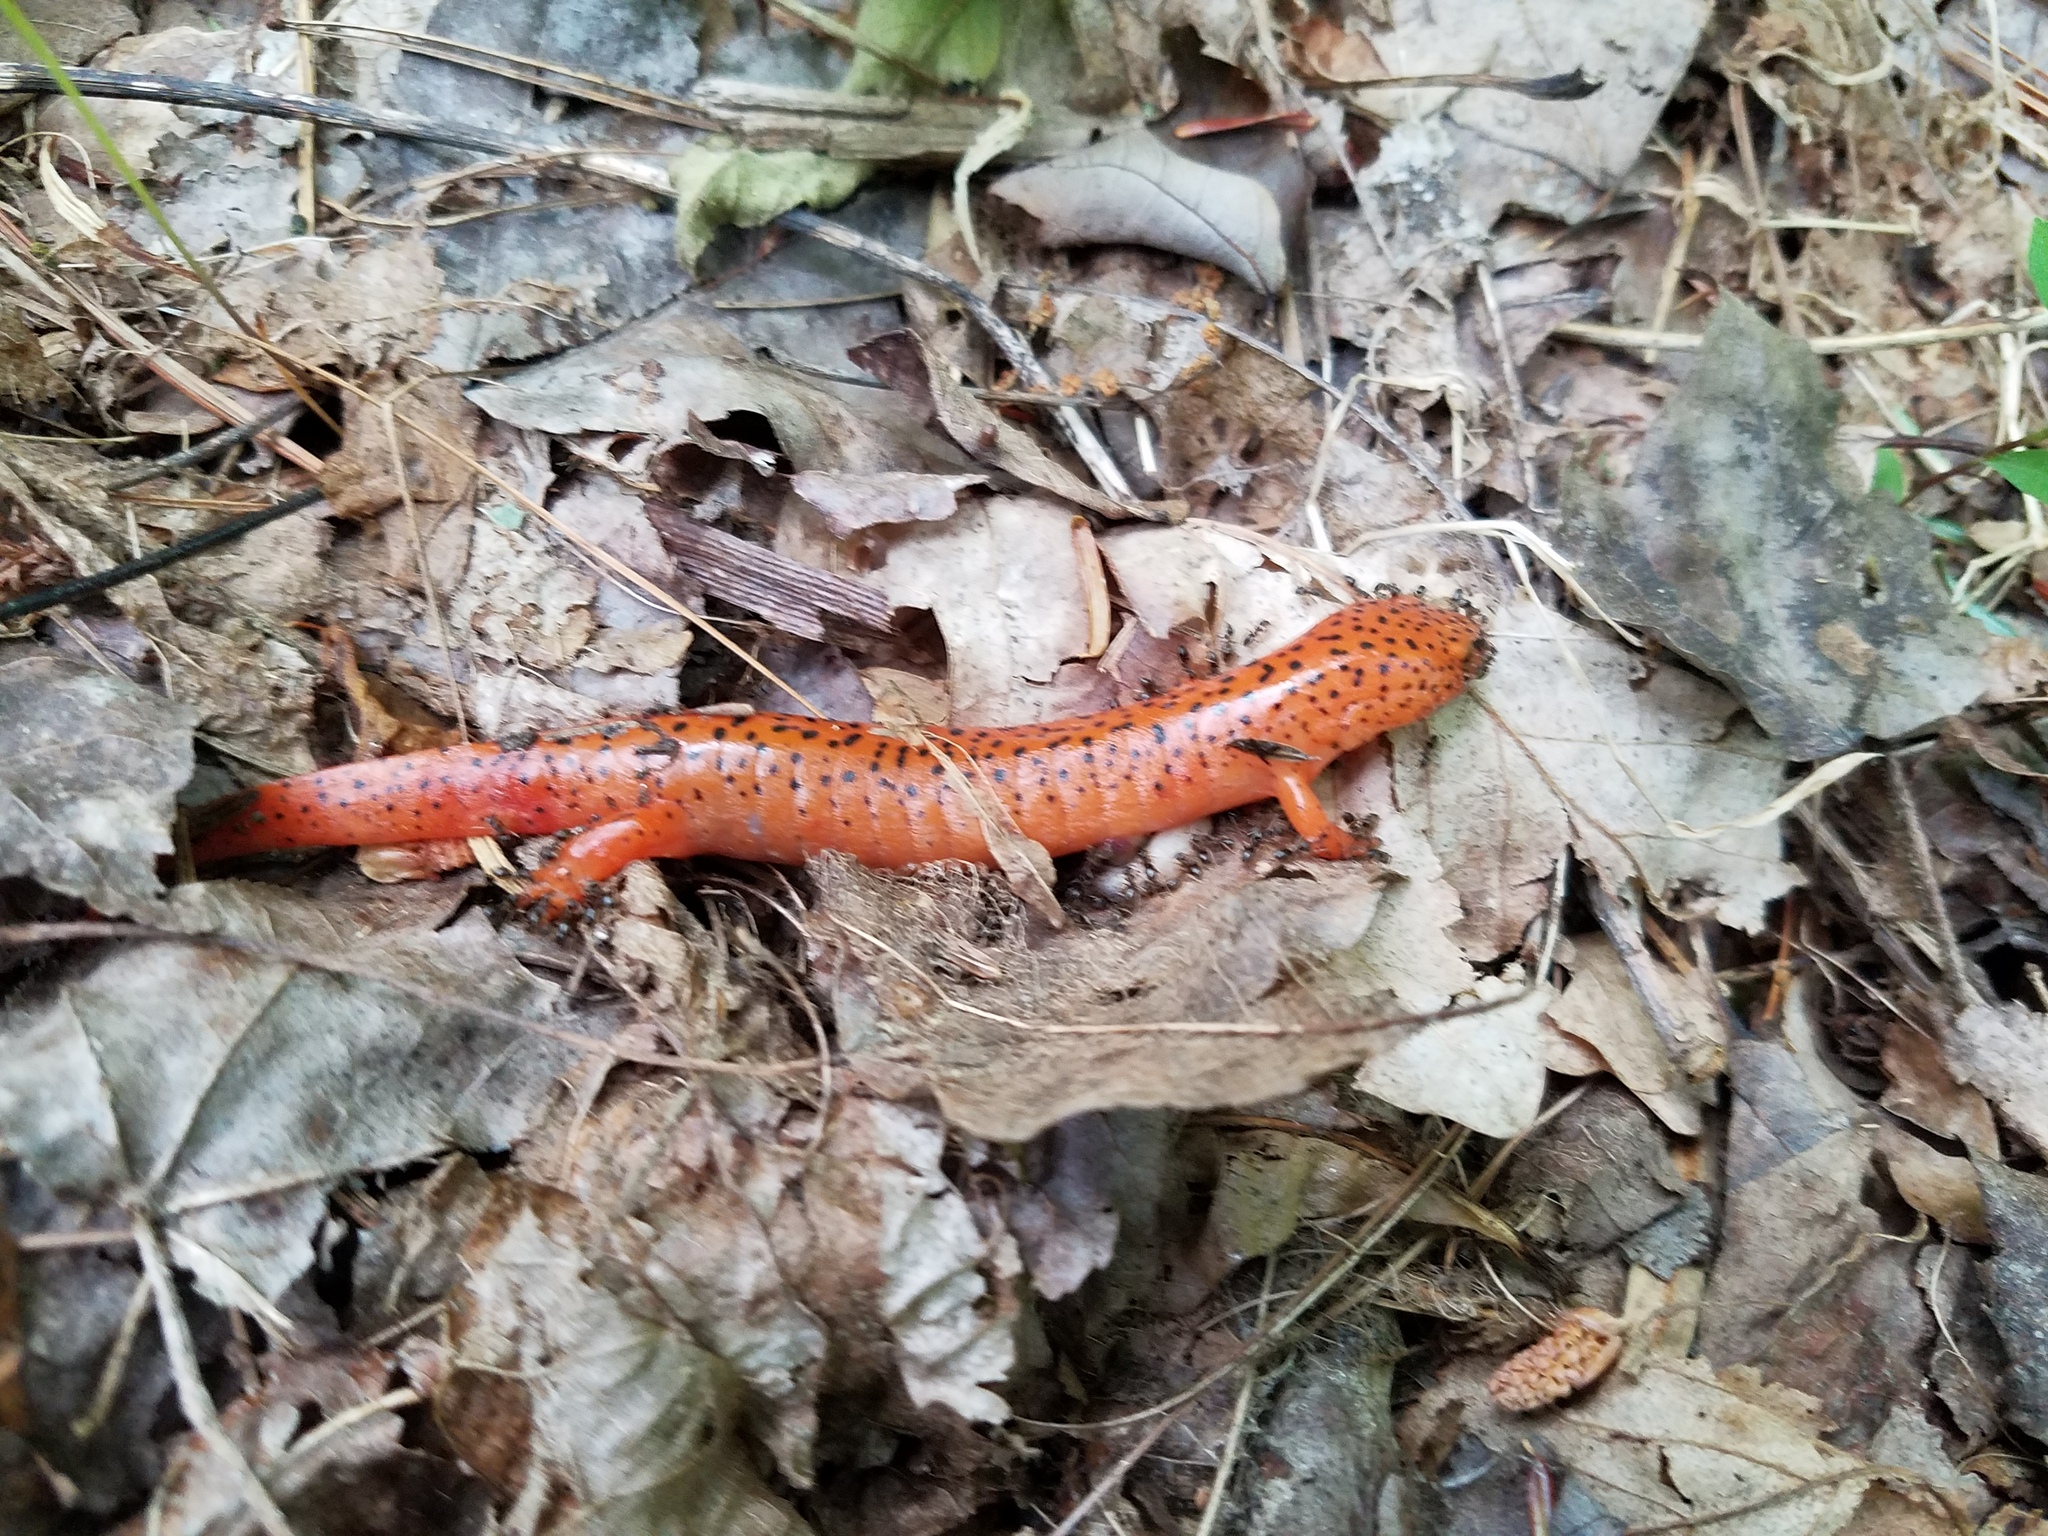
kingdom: Animalia
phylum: Chordata
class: Amphibia
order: Caudata
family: Plethodontidae
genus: Pseudotriton
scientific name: Pseudotriton ruber
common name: Red salamander
